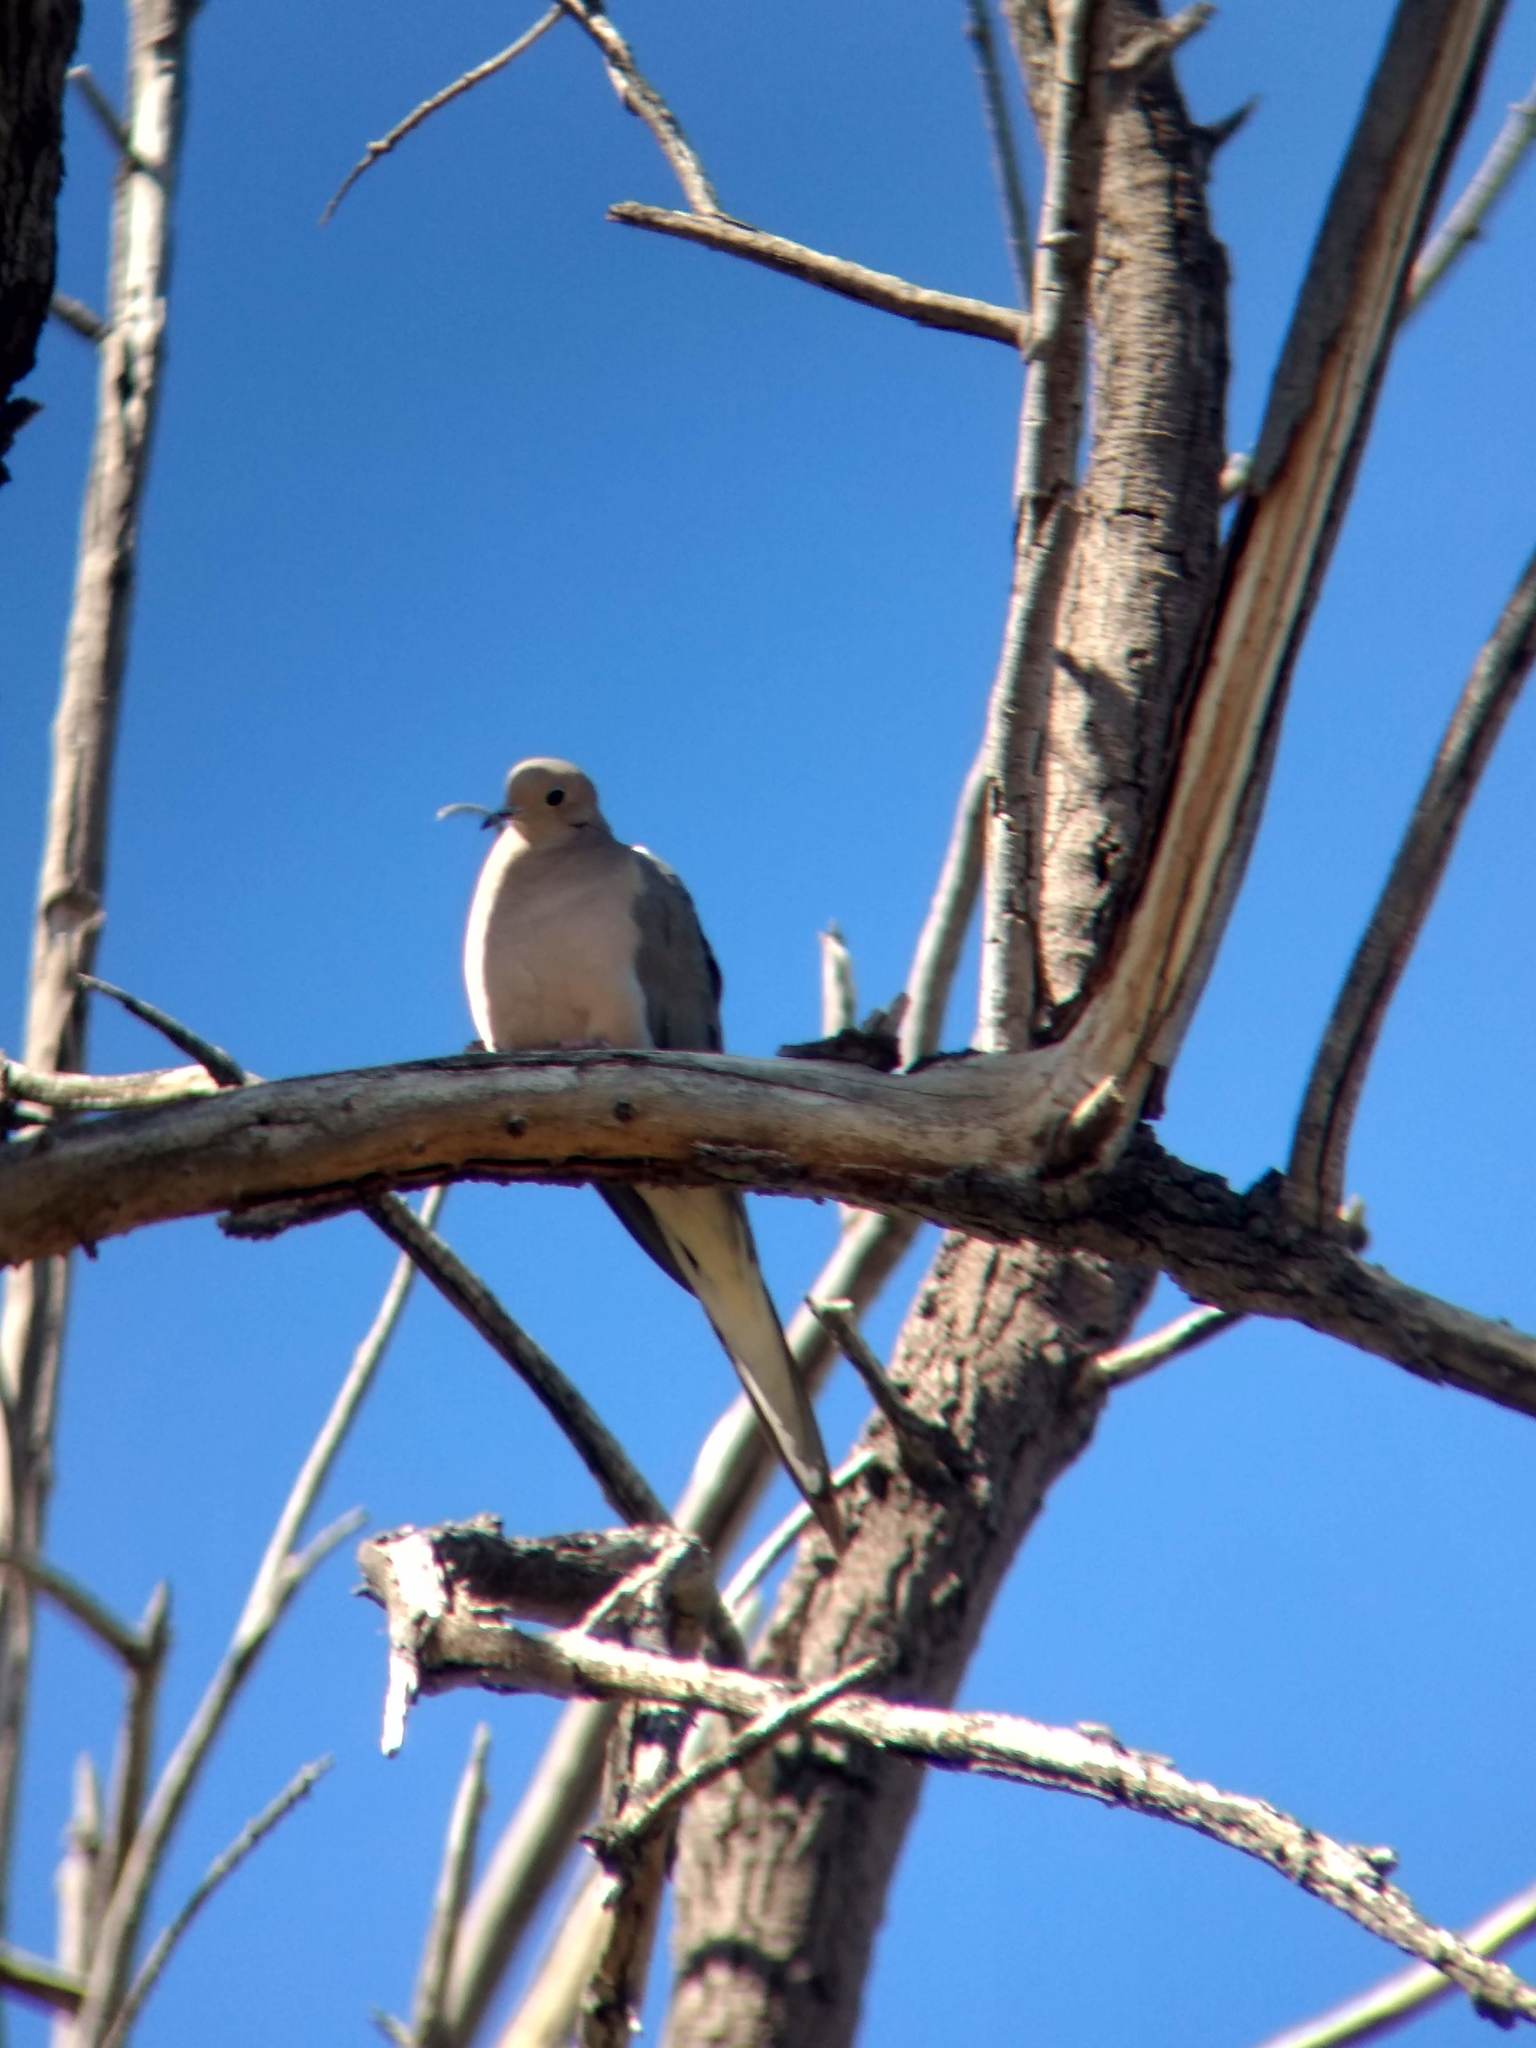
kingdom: Animalia
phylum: Chordata
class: Aves
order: Columbiformes
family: Columbidae
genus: Zenaida
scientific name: Zenaida macroura
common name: Mourning dove
